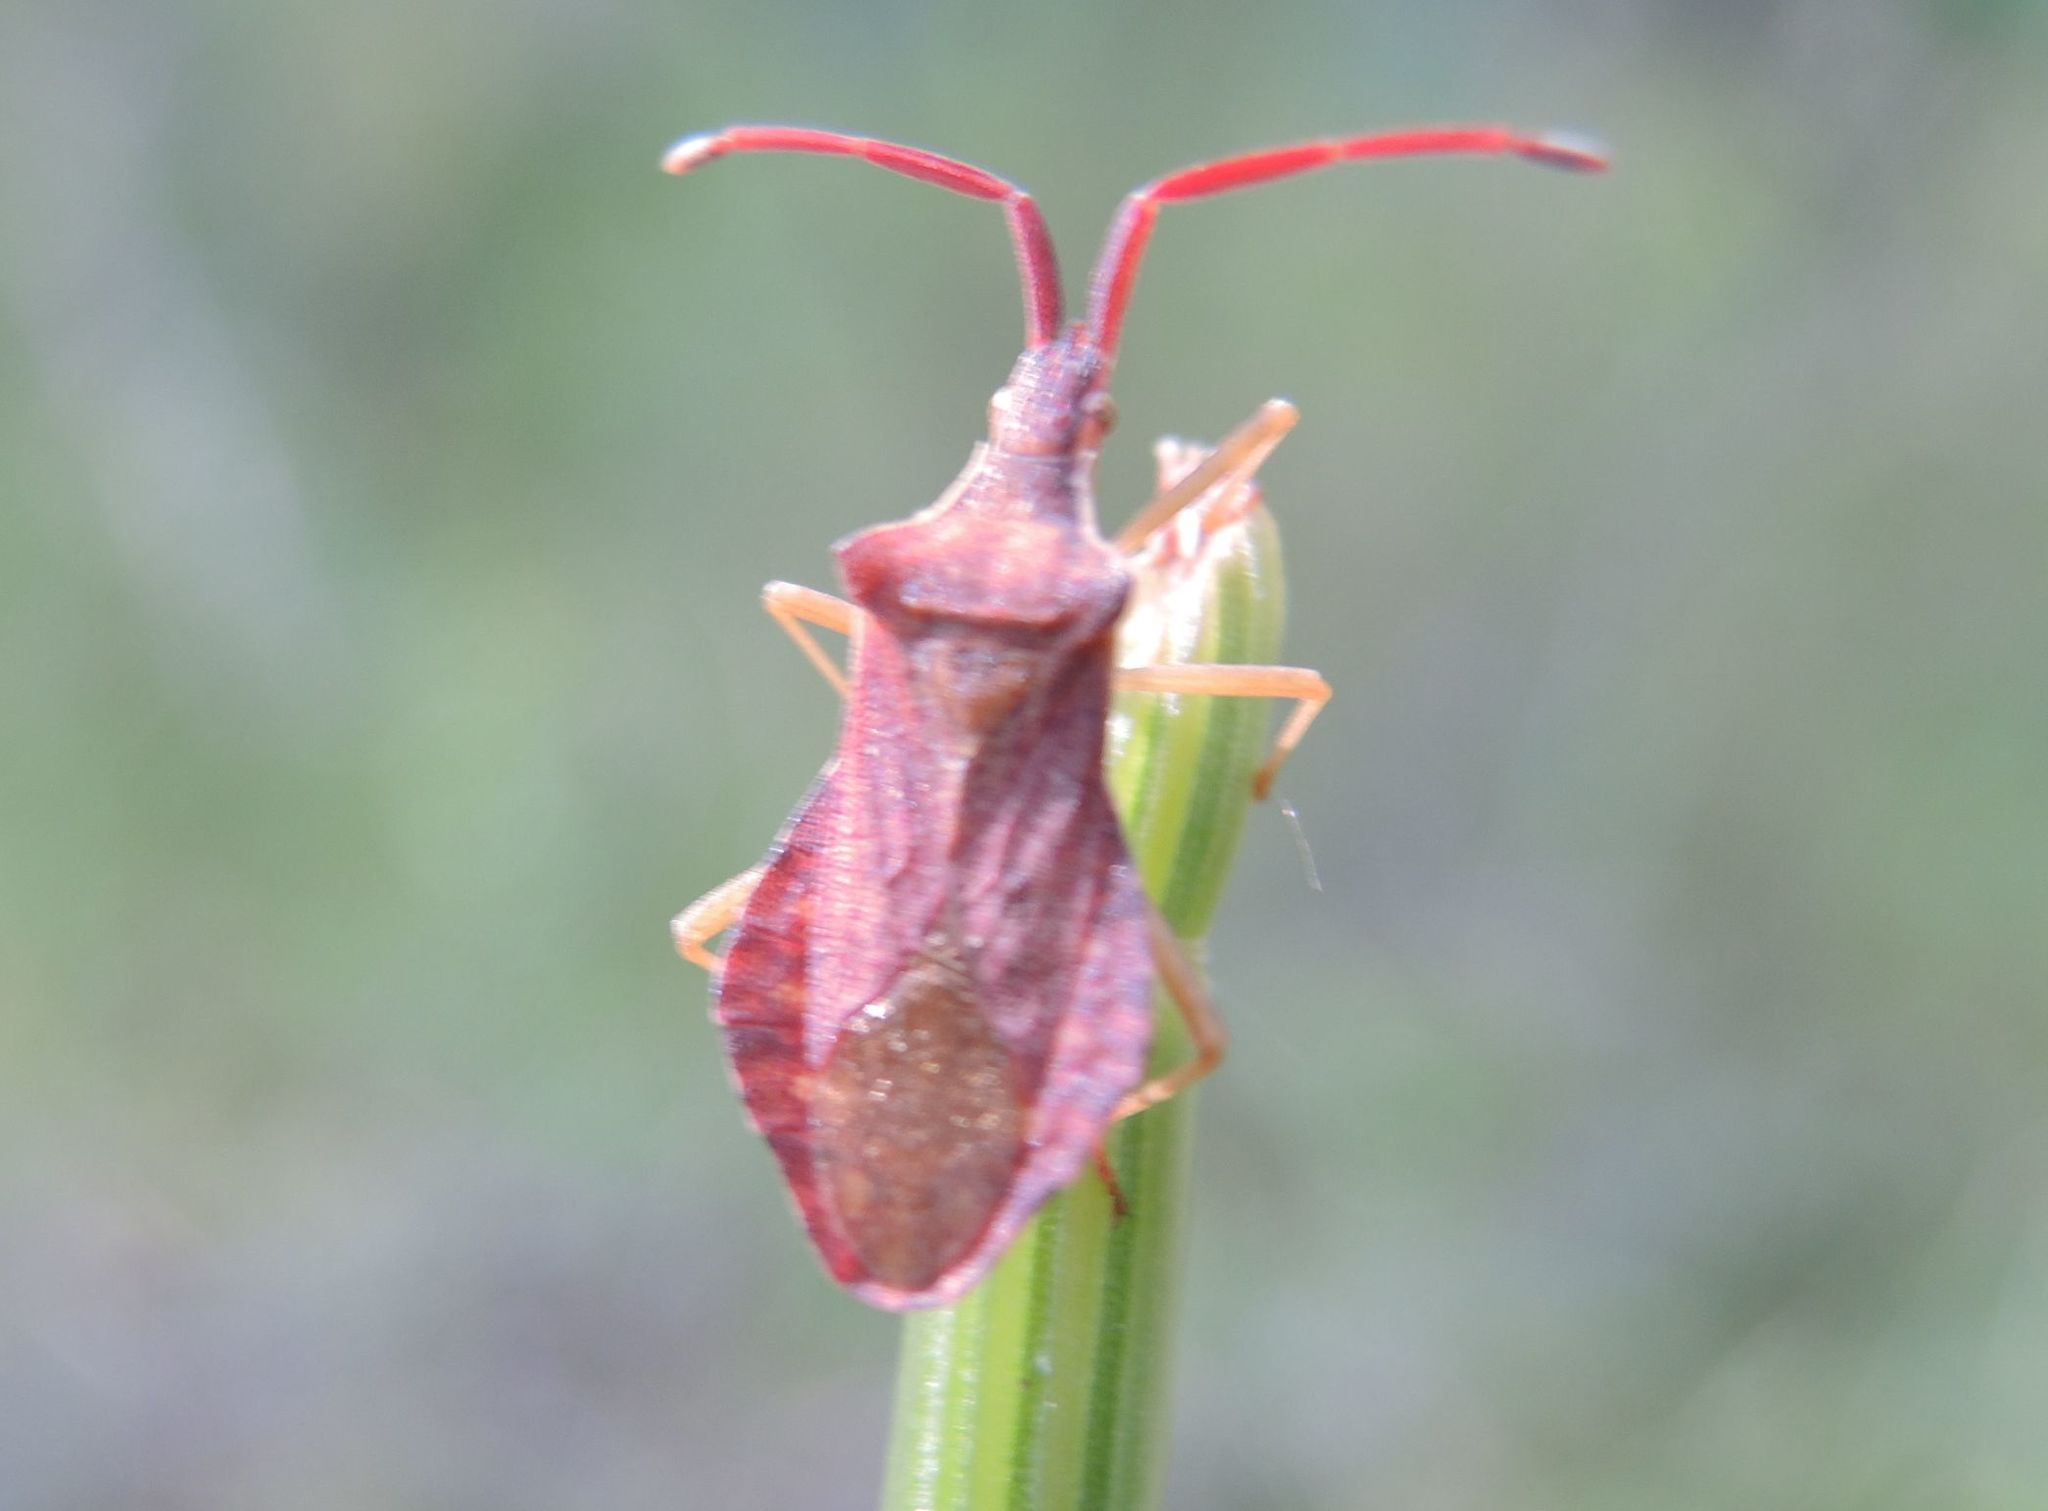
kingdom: Animalia
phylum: Arthropoda
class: Insecta
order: Hemiptera
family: Coreidae
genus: Haploprocta
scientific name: Haploprocta sulcicornis
